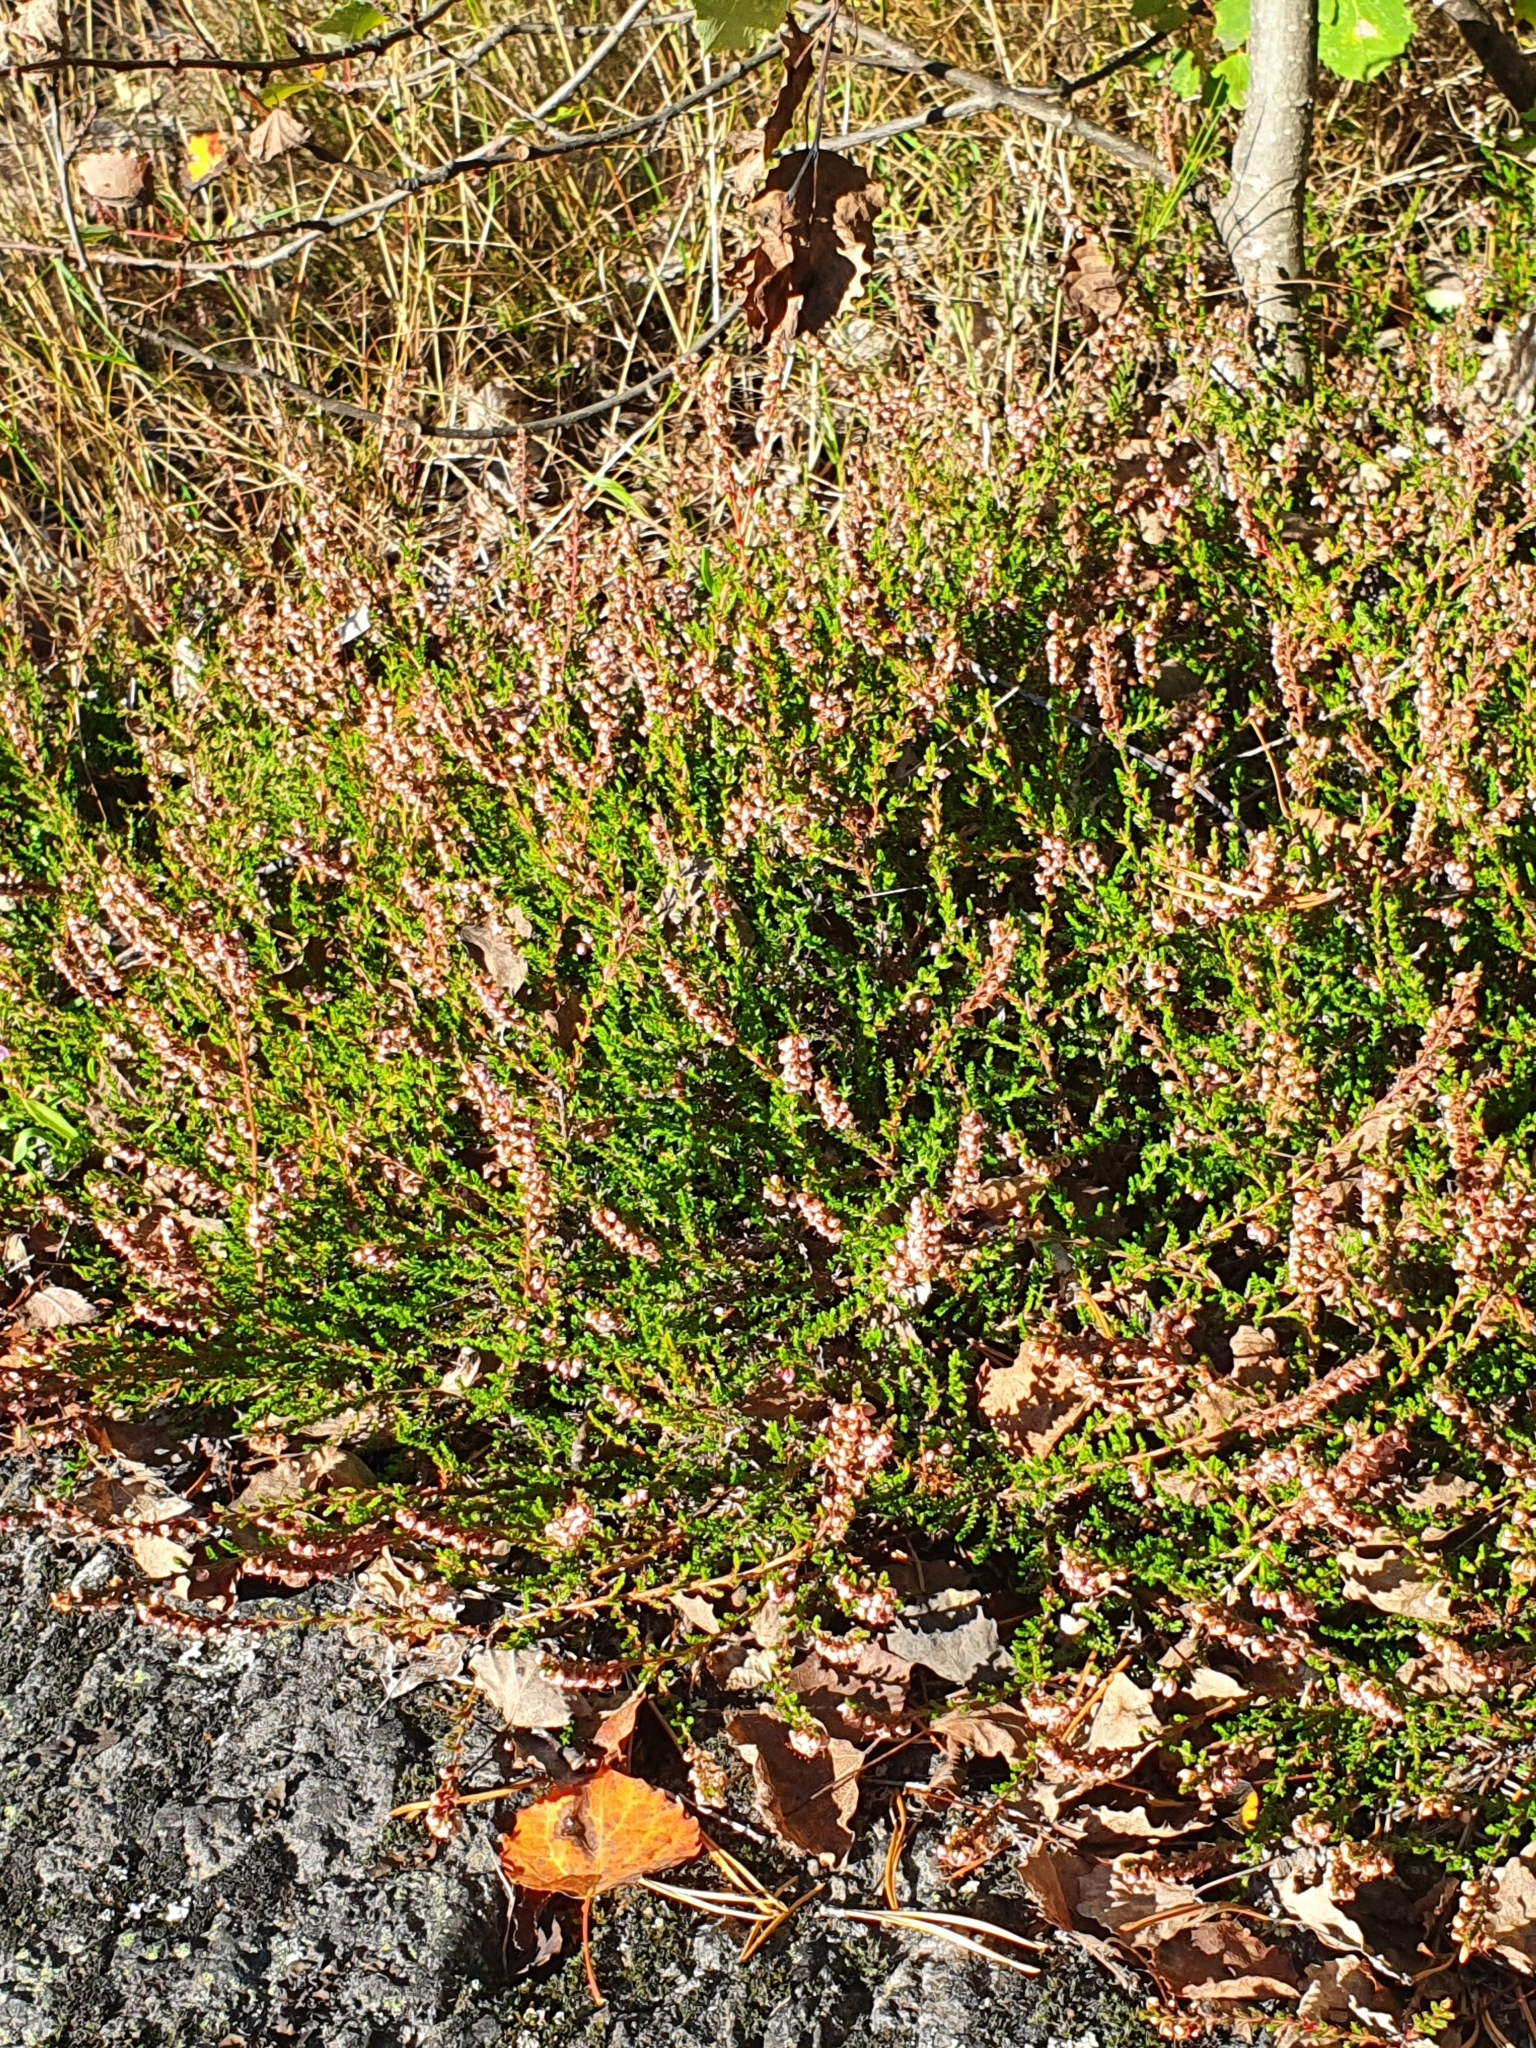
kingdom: Plantae
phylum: Tracheophyta
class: Magnoliopsida
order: Ericales
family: Ericaceae
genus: Calluna
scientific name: Calluna vulgaris
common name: Heather
